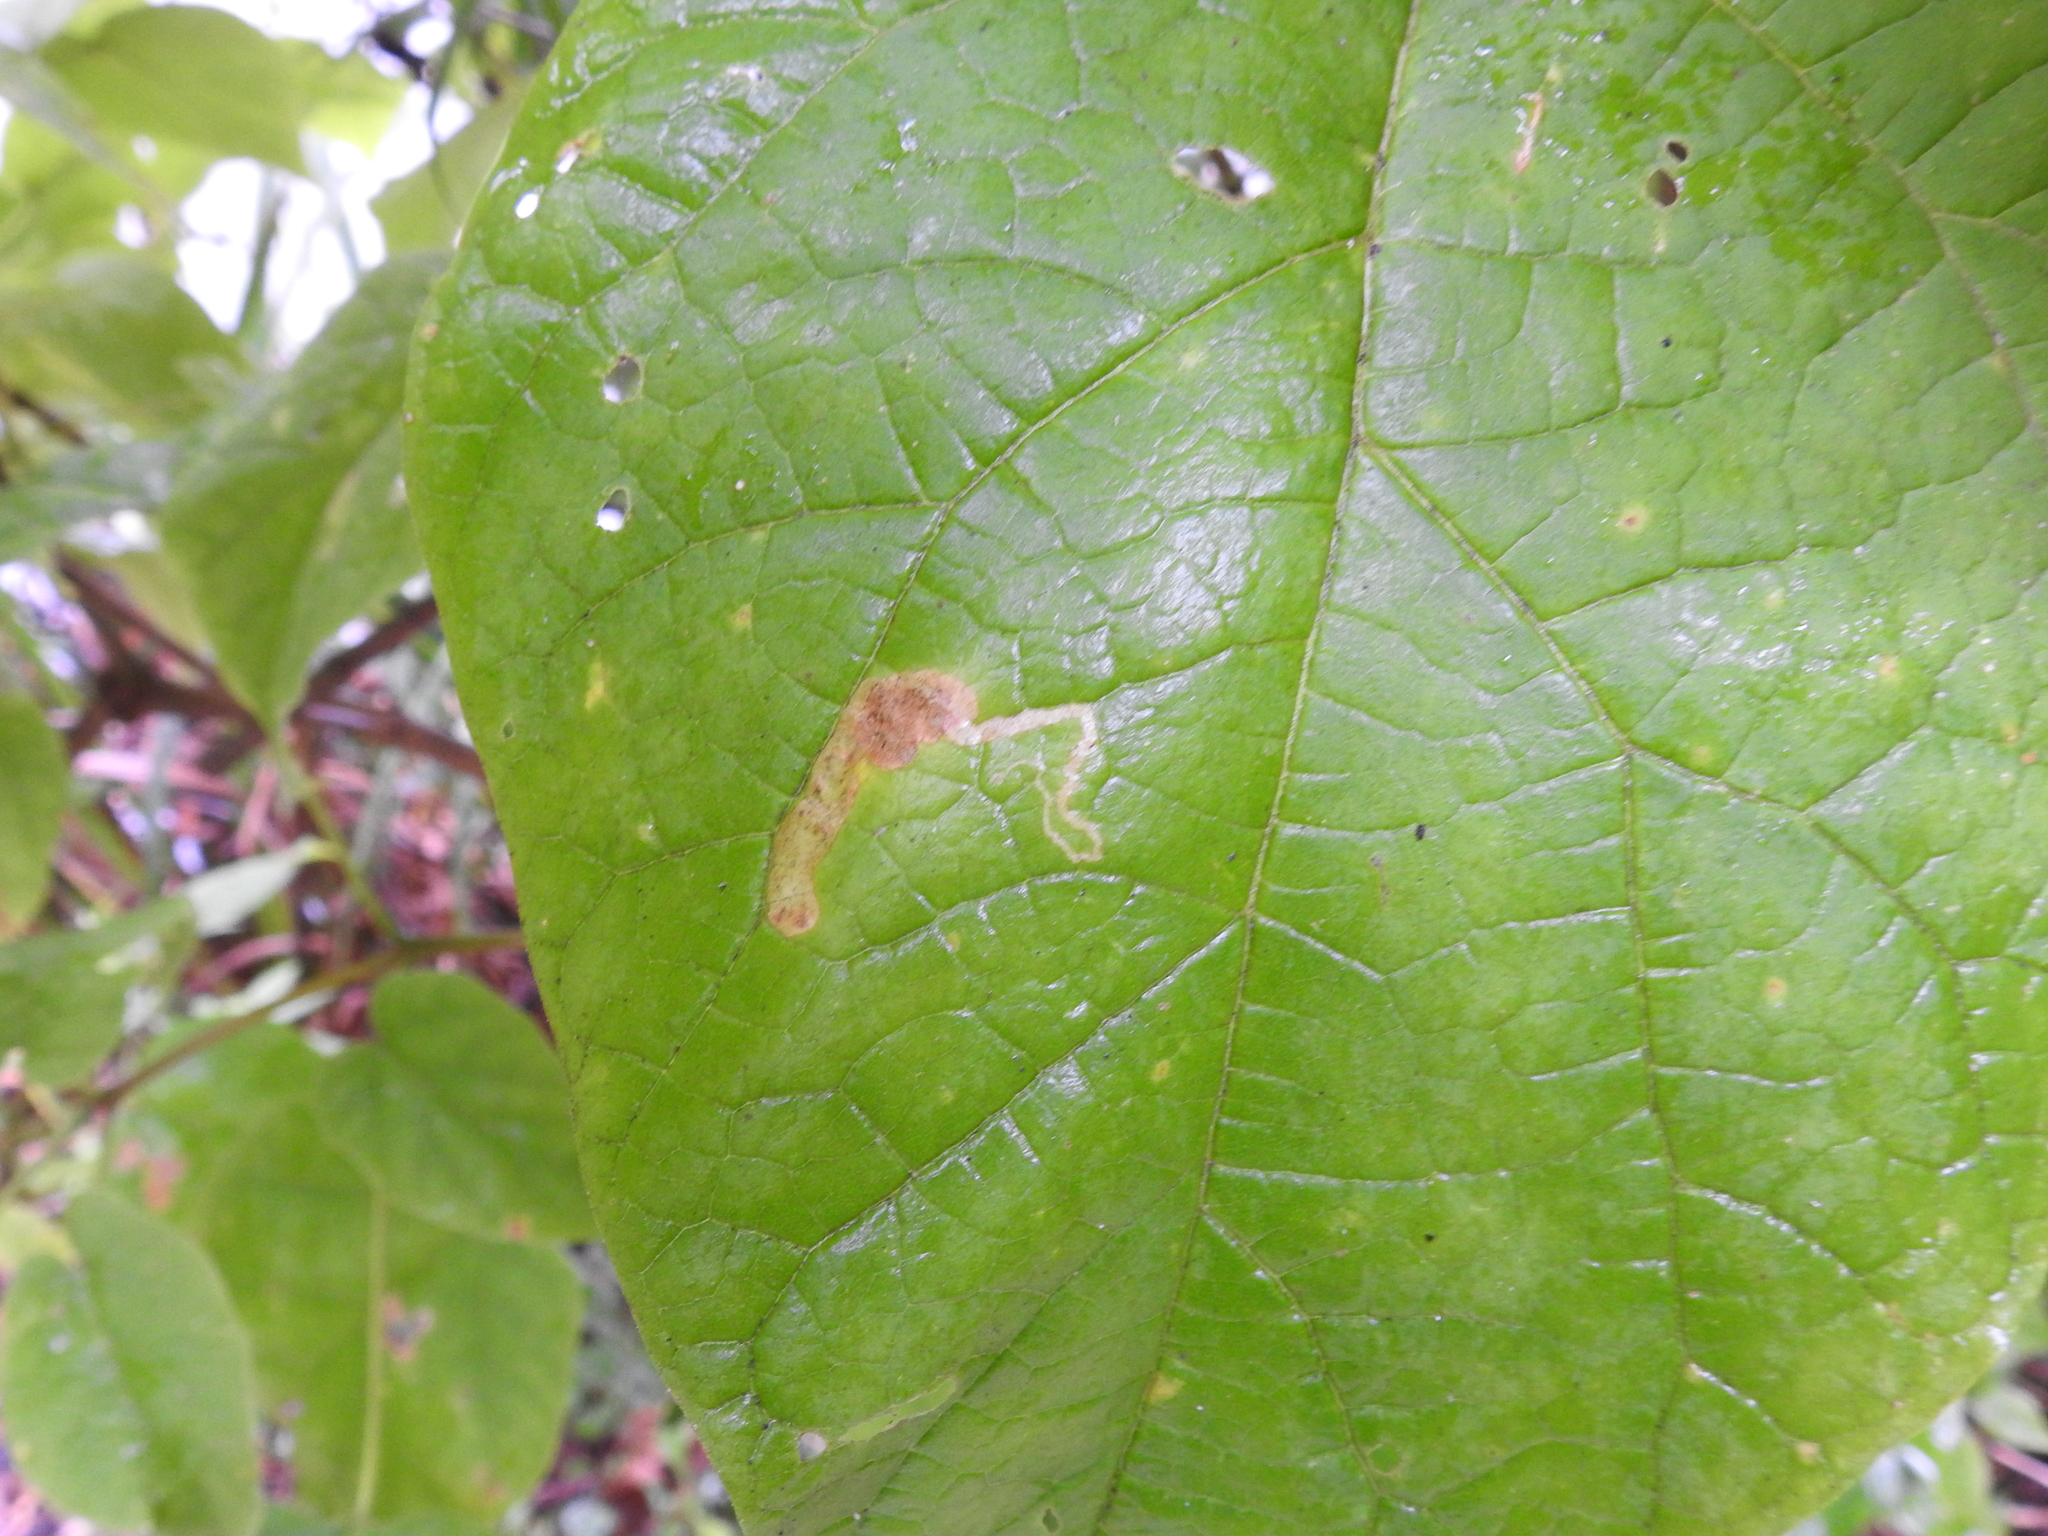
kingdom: Animalia
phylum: Arthropoda
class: Insecta
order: Diptera
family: Agromyzidae
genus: Amauromyza
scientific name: Amauromyza pleuralis
